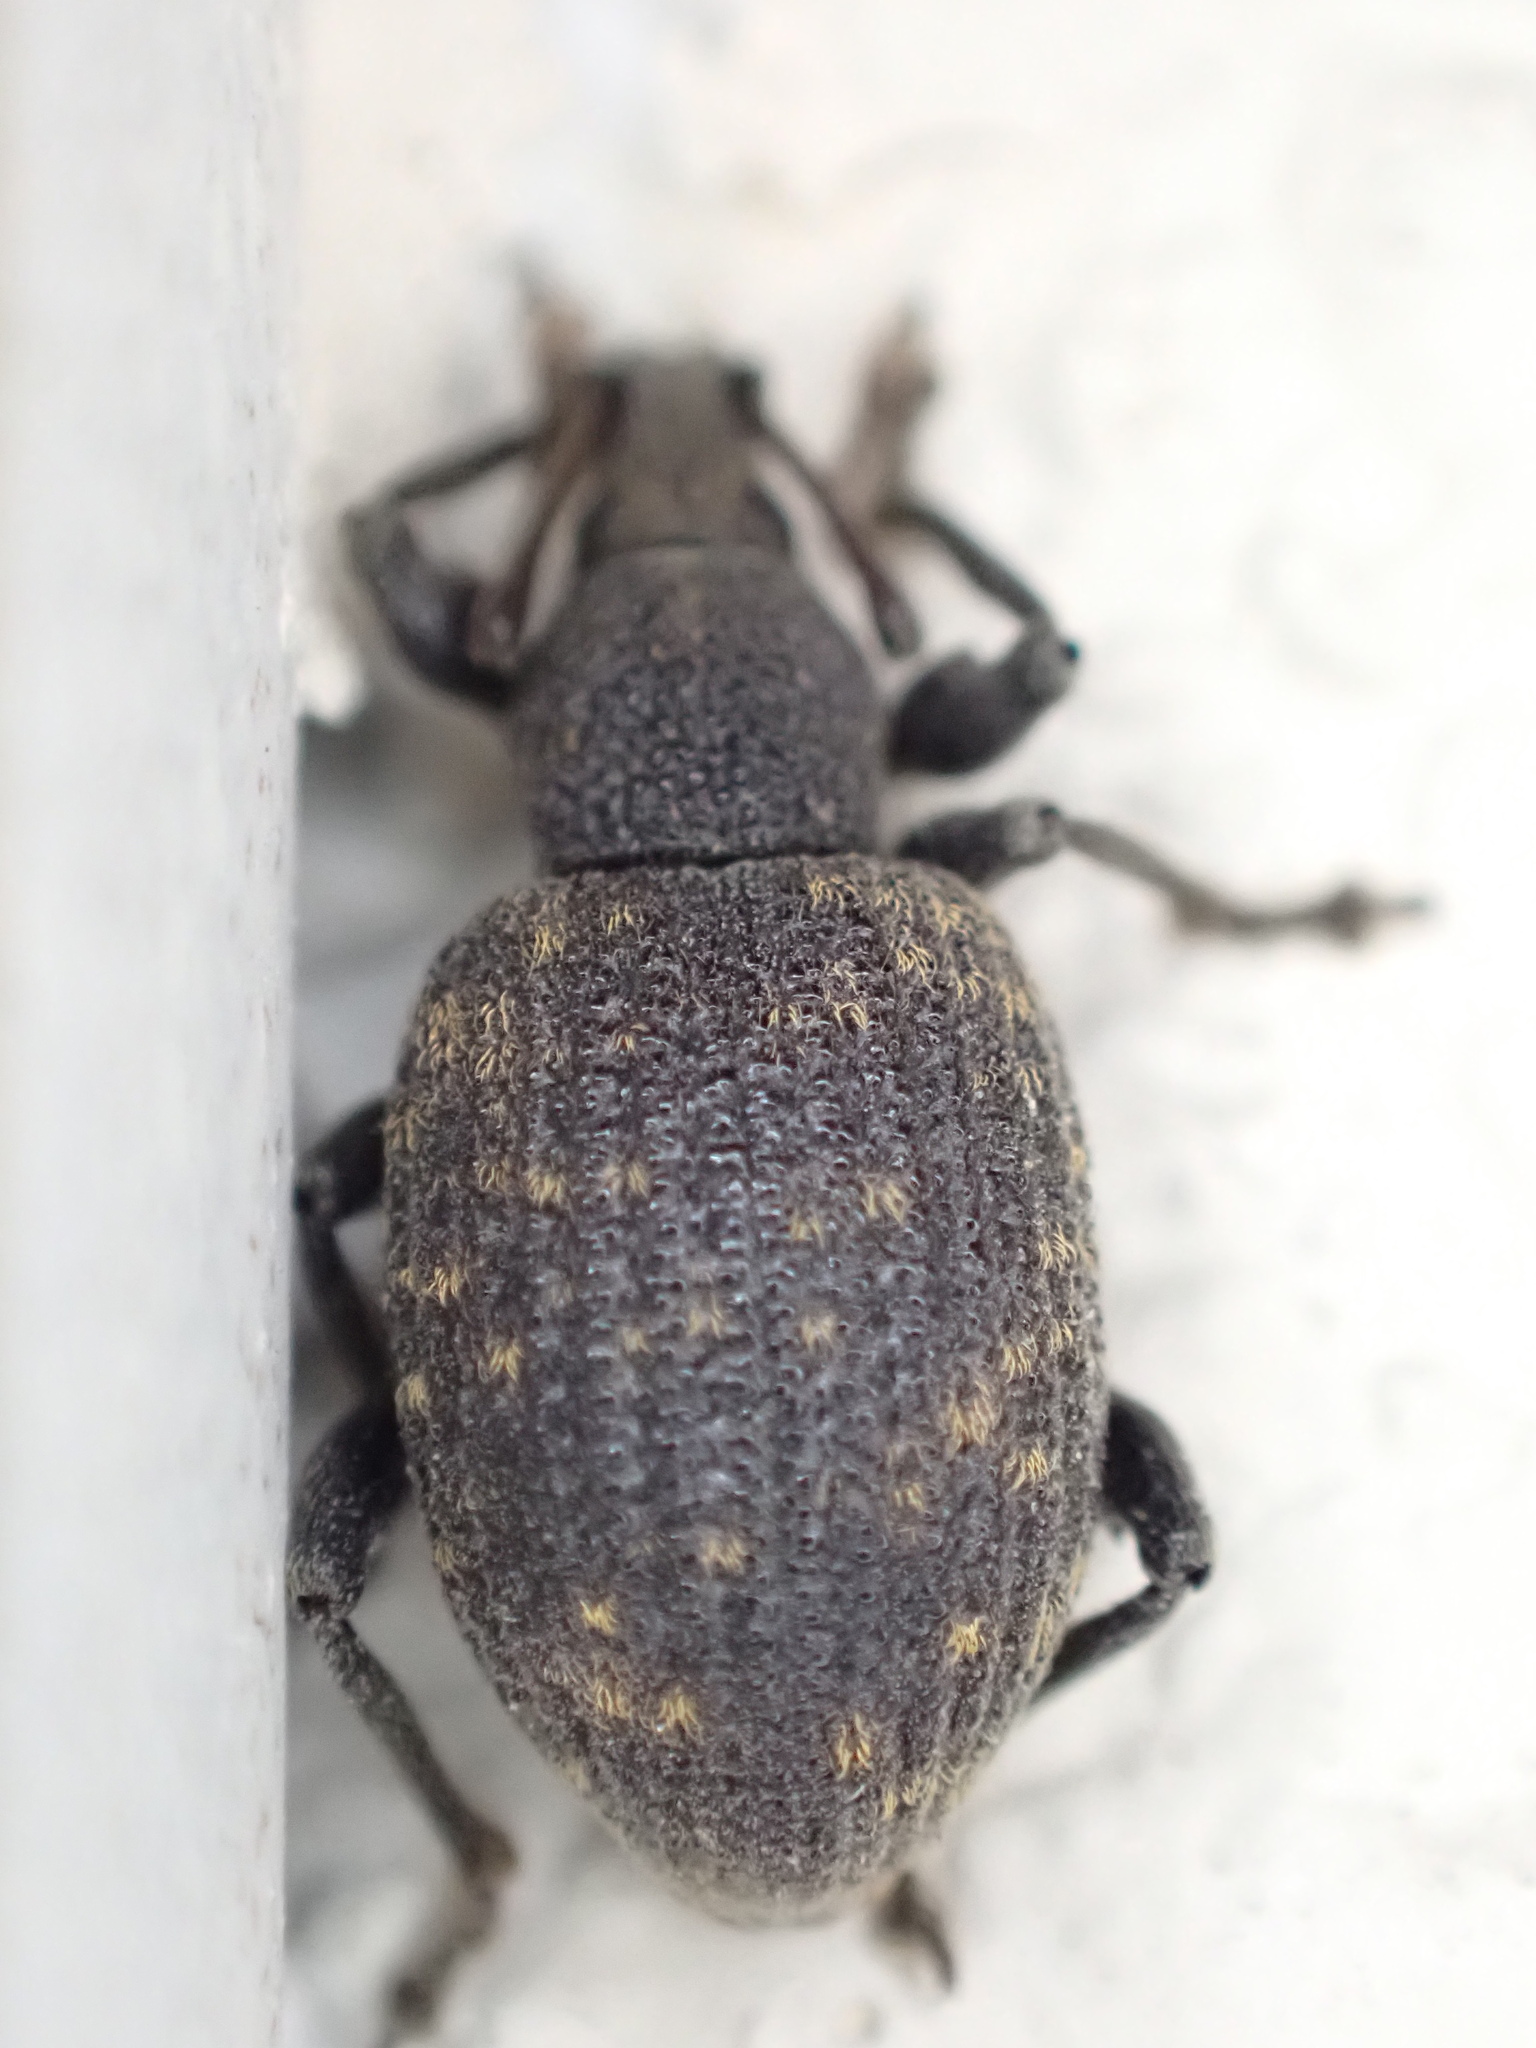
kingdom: Animalia
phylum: Arthropoda
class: Insecta
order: Coleoptera
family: Curculionidae
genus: Otiorhynchus
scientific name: Otiorhynchus sulcatus
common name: Black vine weevil
